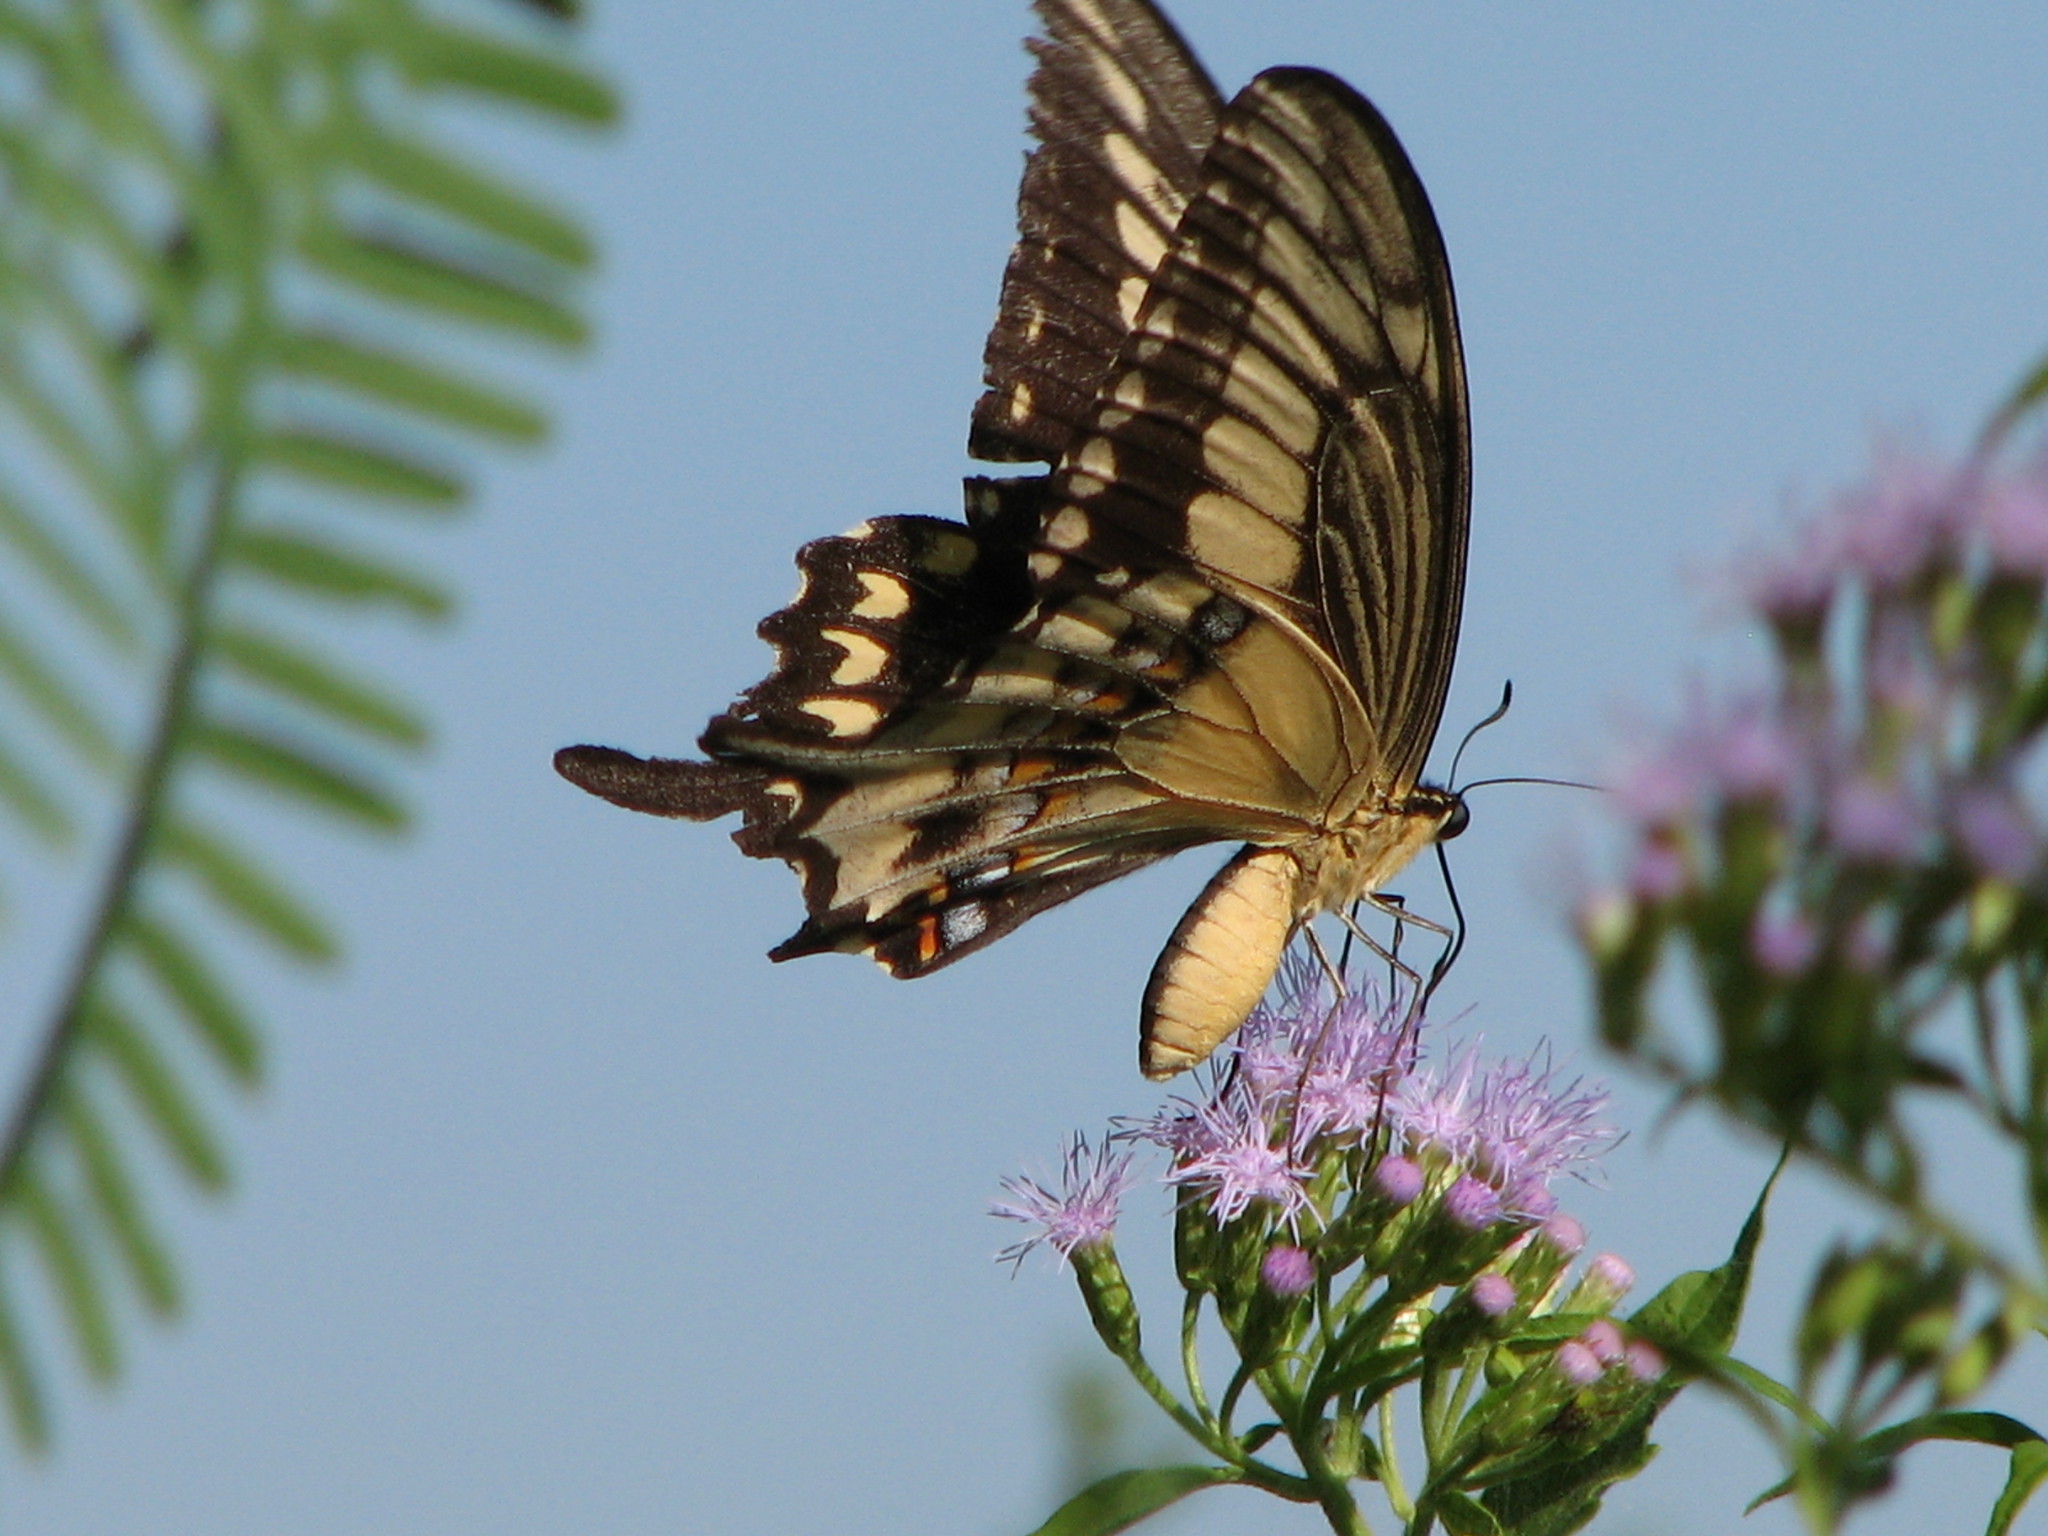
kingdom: Animalia
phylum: Arthropoda
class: Insecta
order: Lepidoptera
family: Papilionidae
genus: Papilio
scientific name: Papilio ornythion
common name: Ornythion swallowtail
